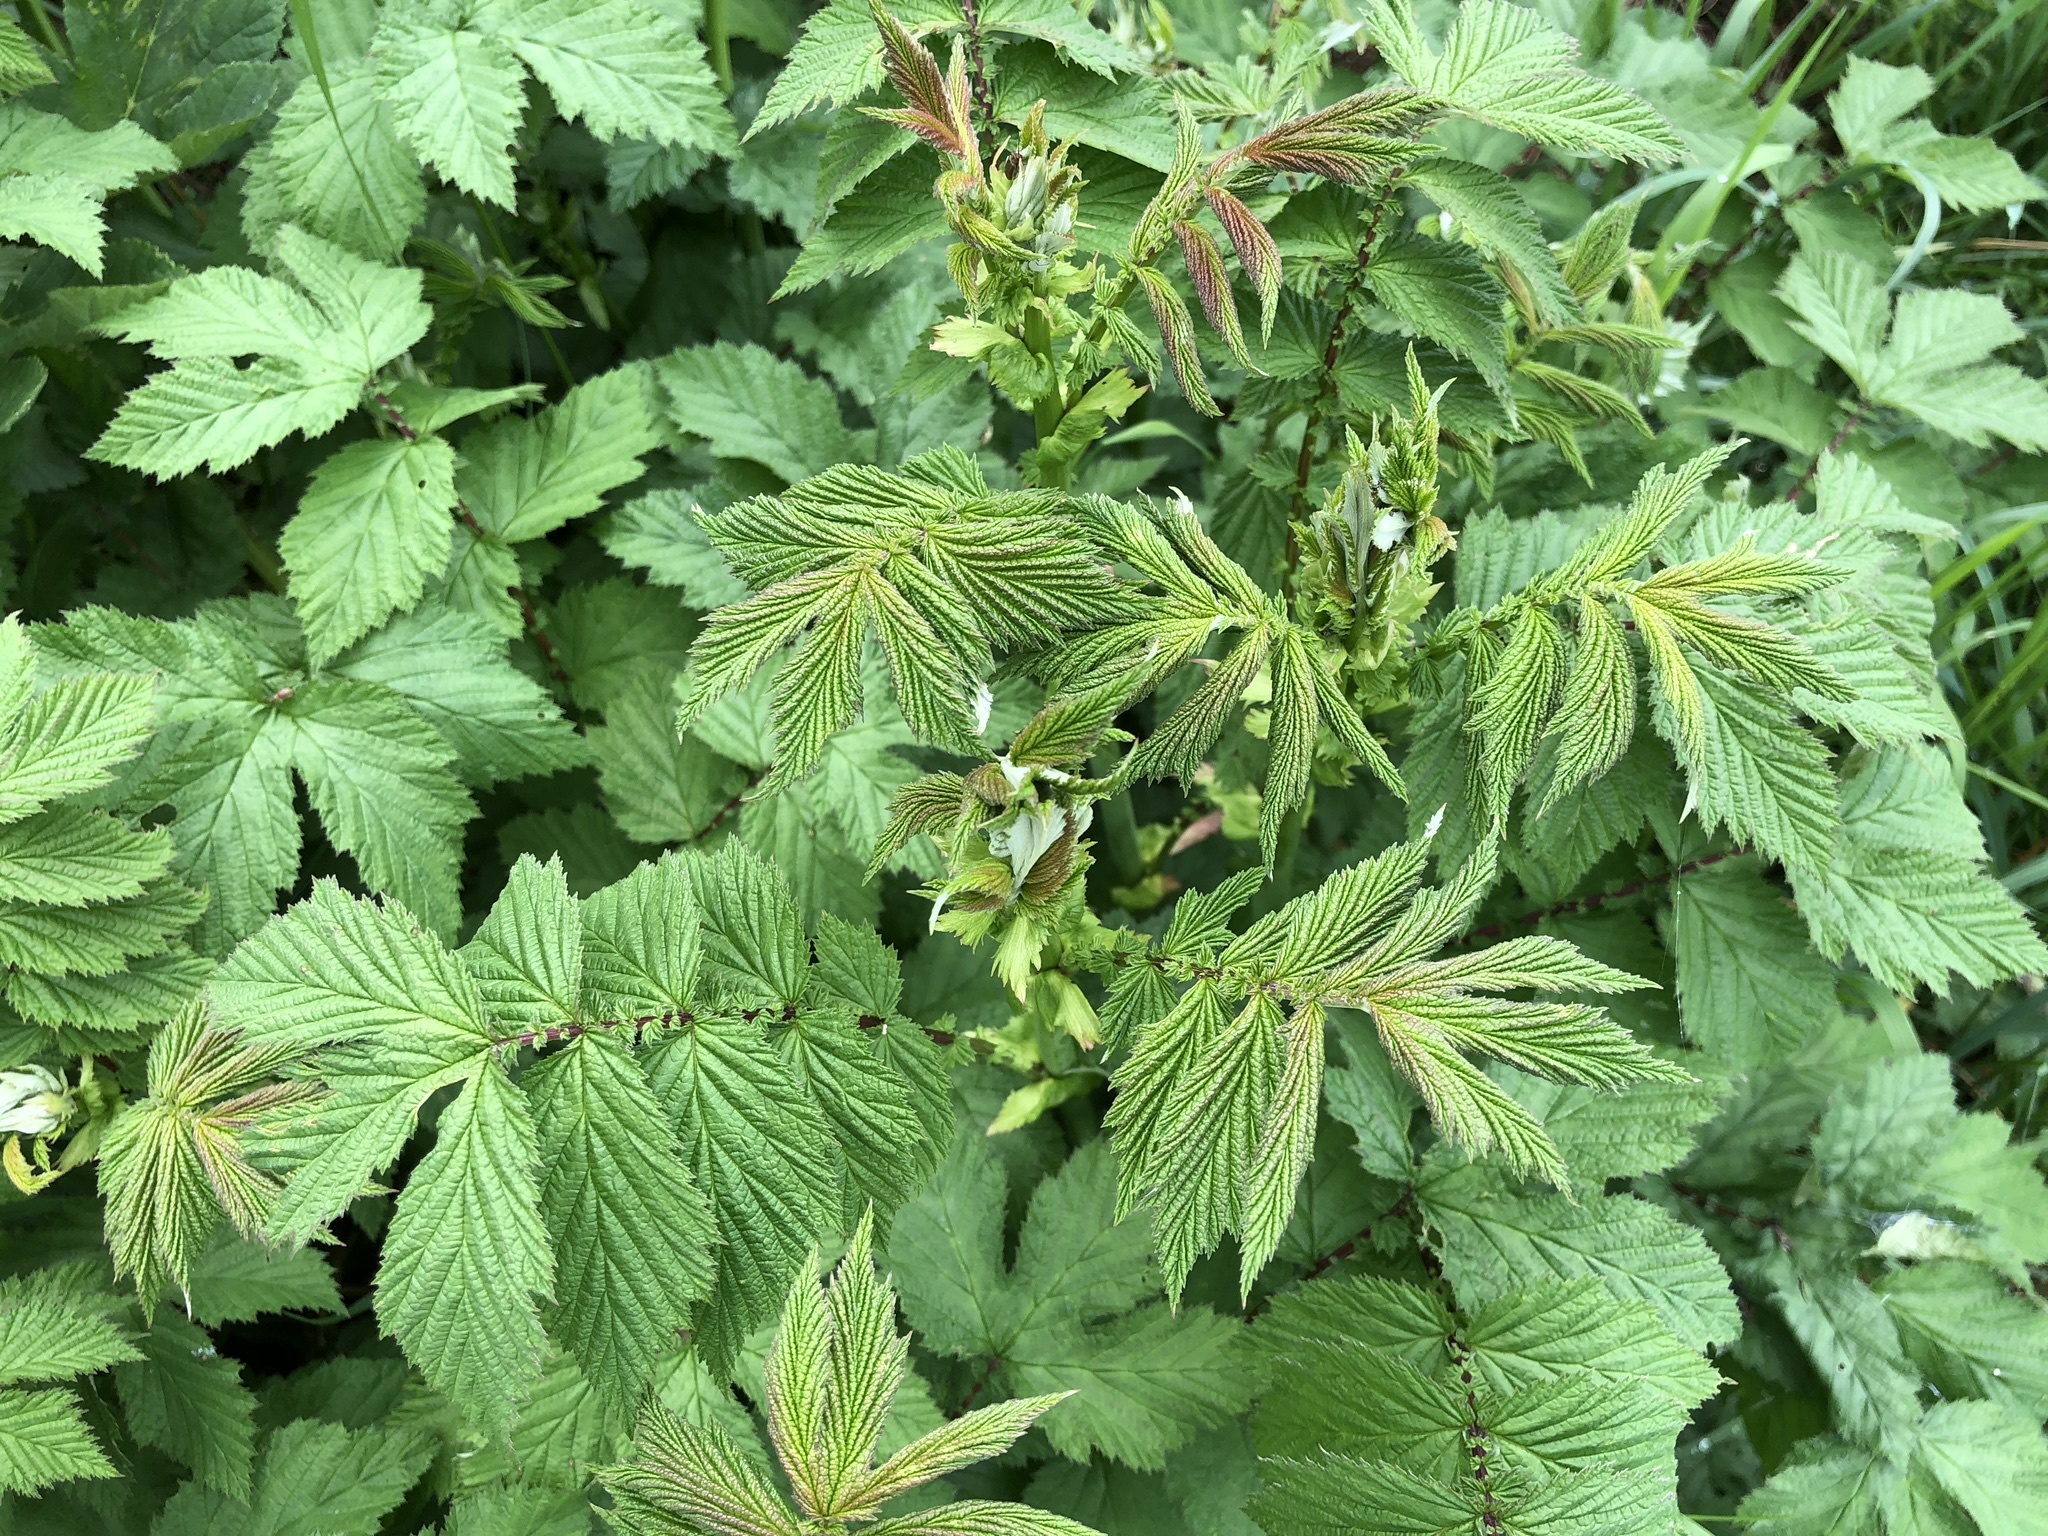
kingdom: Plantae
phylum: Tracheophyta
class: Magnoliopsida
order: Rosales
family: Rosaceae
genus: Filipendula
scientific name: Filipendula ulmaria
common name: Meadowsweet
